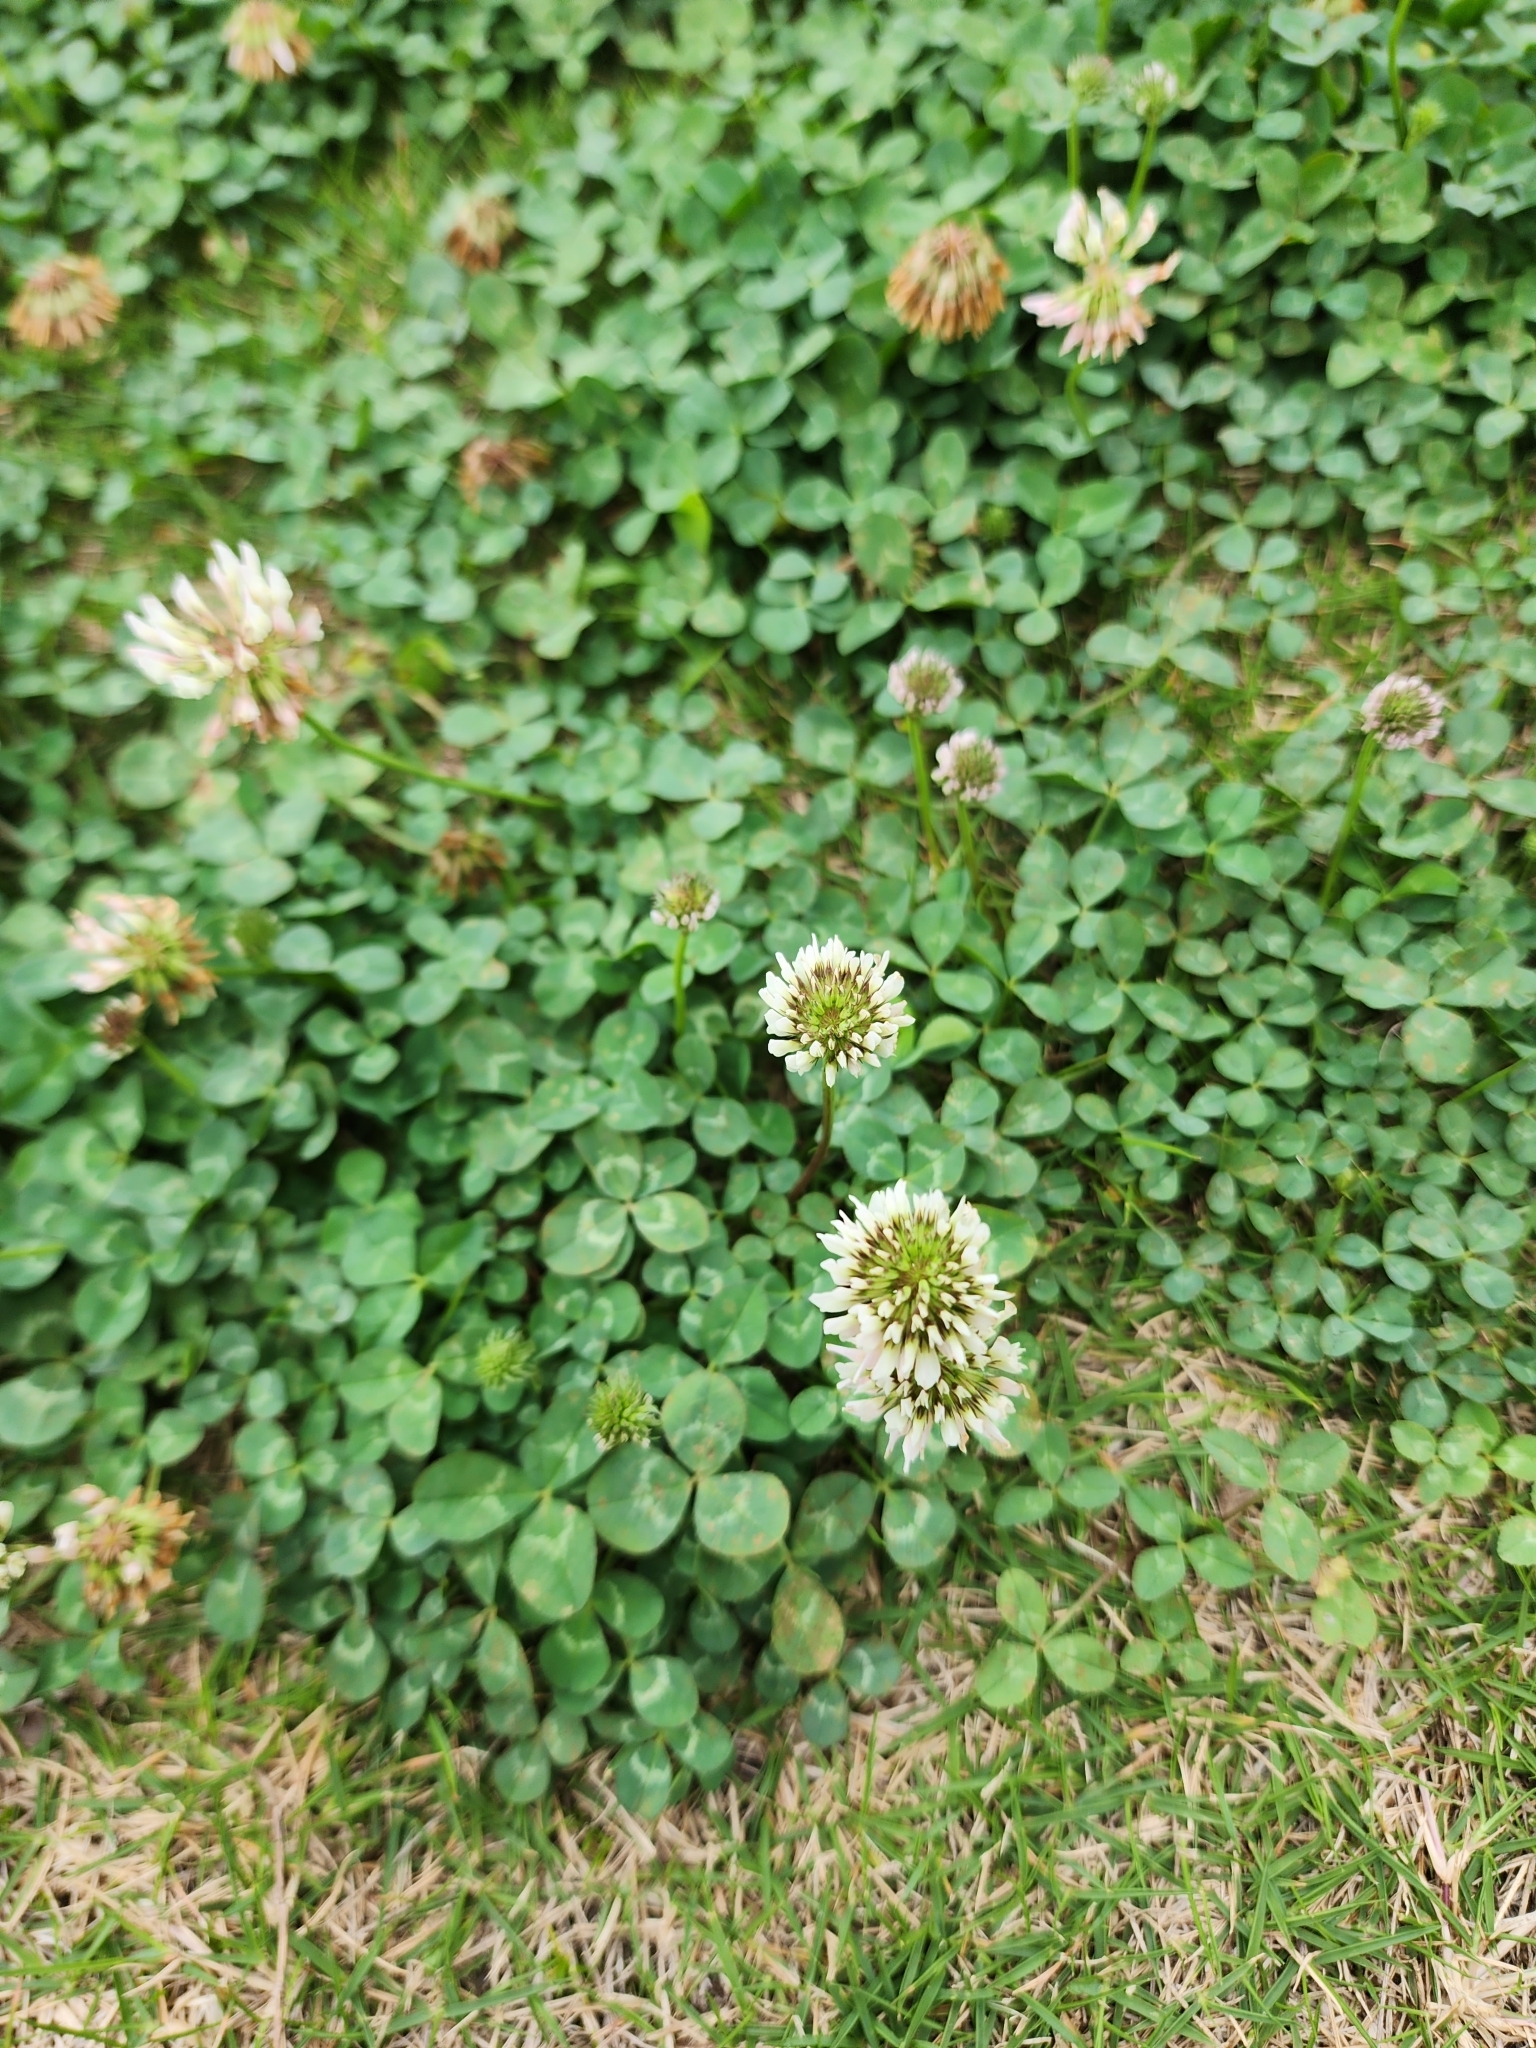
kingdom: Plantae
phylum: Tracheophyta
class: Magnoliopsida
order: Fabales
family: Fabaceae
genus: Trifolium
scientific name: Trifolium repens
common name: White clover
